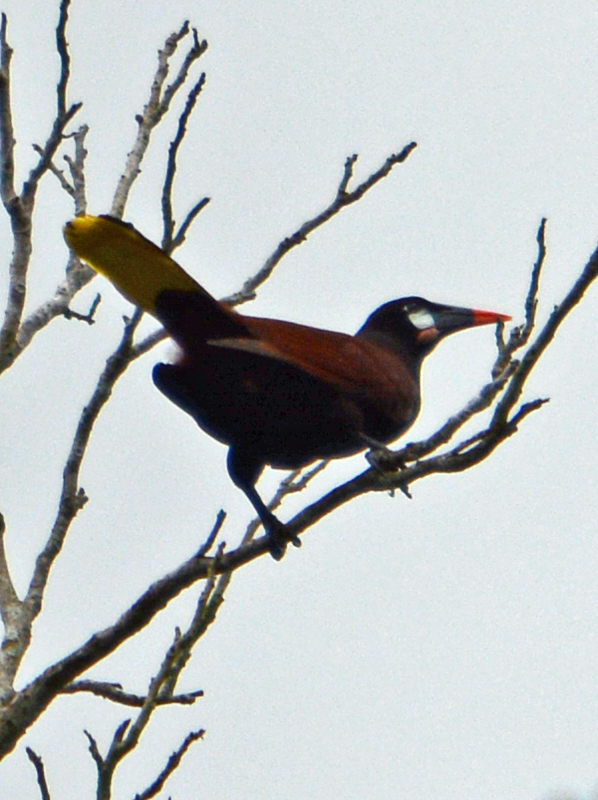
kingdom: Animalia
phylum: Chordata
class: Aves
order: Passeriformes
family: Icteridae
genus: Psarocolius
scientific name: Psarocolius montezuma
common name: Montezuma oropendola
